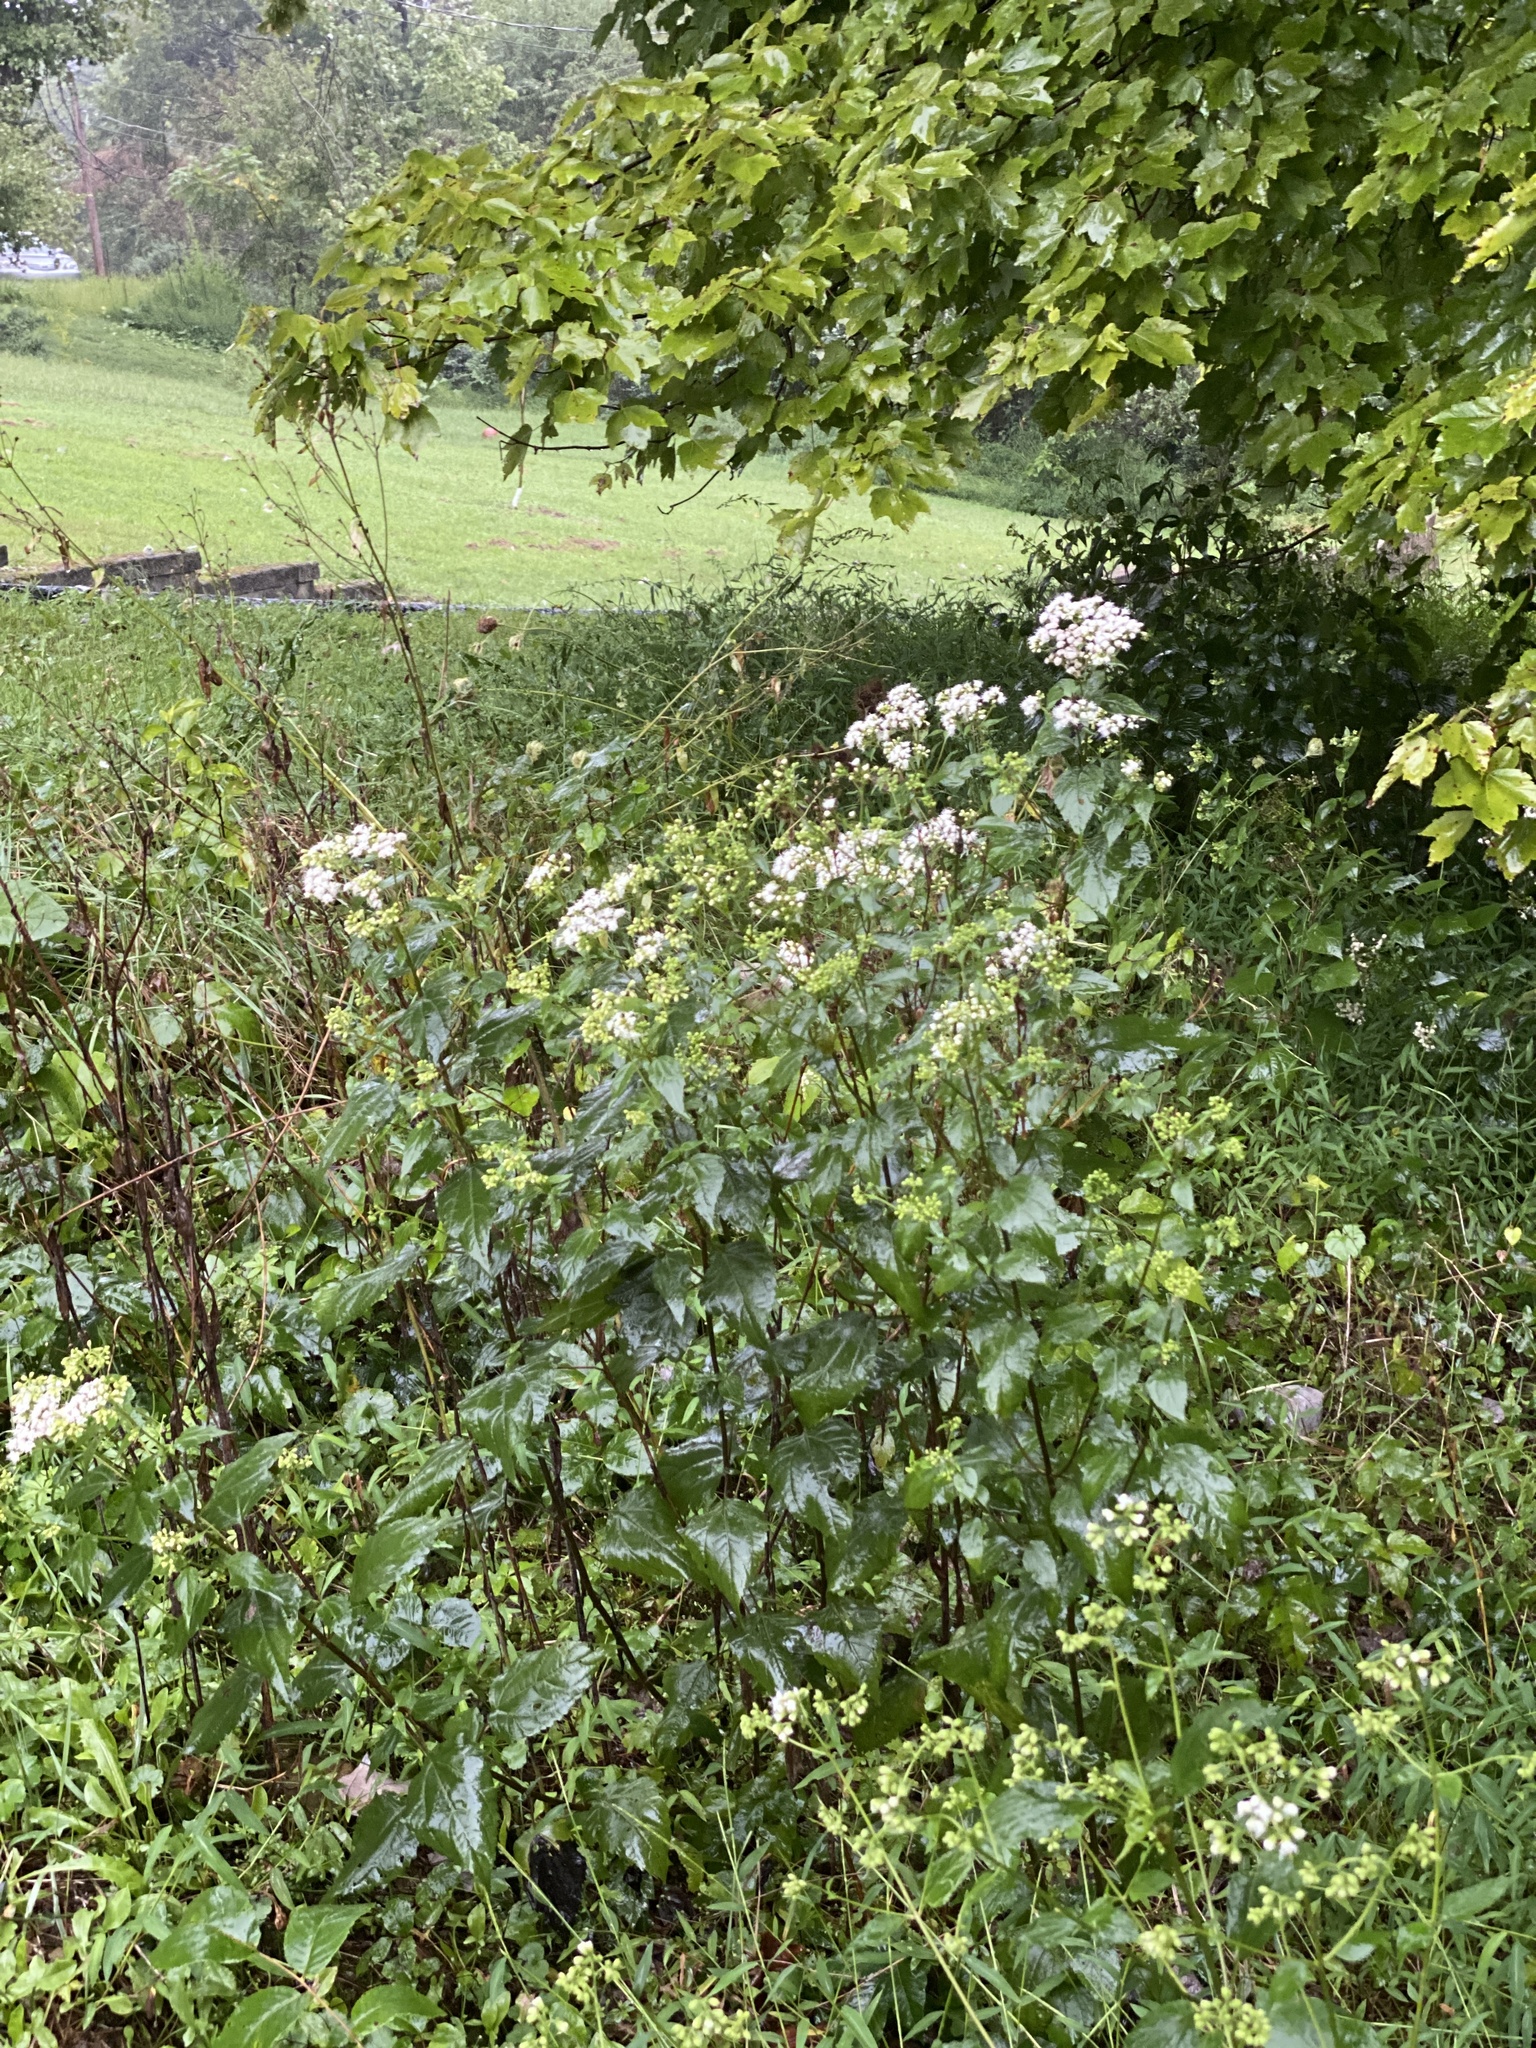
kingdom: Plantae
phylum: Tracheophyta
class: Magnoliopsida
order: Asterales
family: Asteraceae
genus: Ageratina
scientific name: Ageratina altissima
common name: White snakeroot
